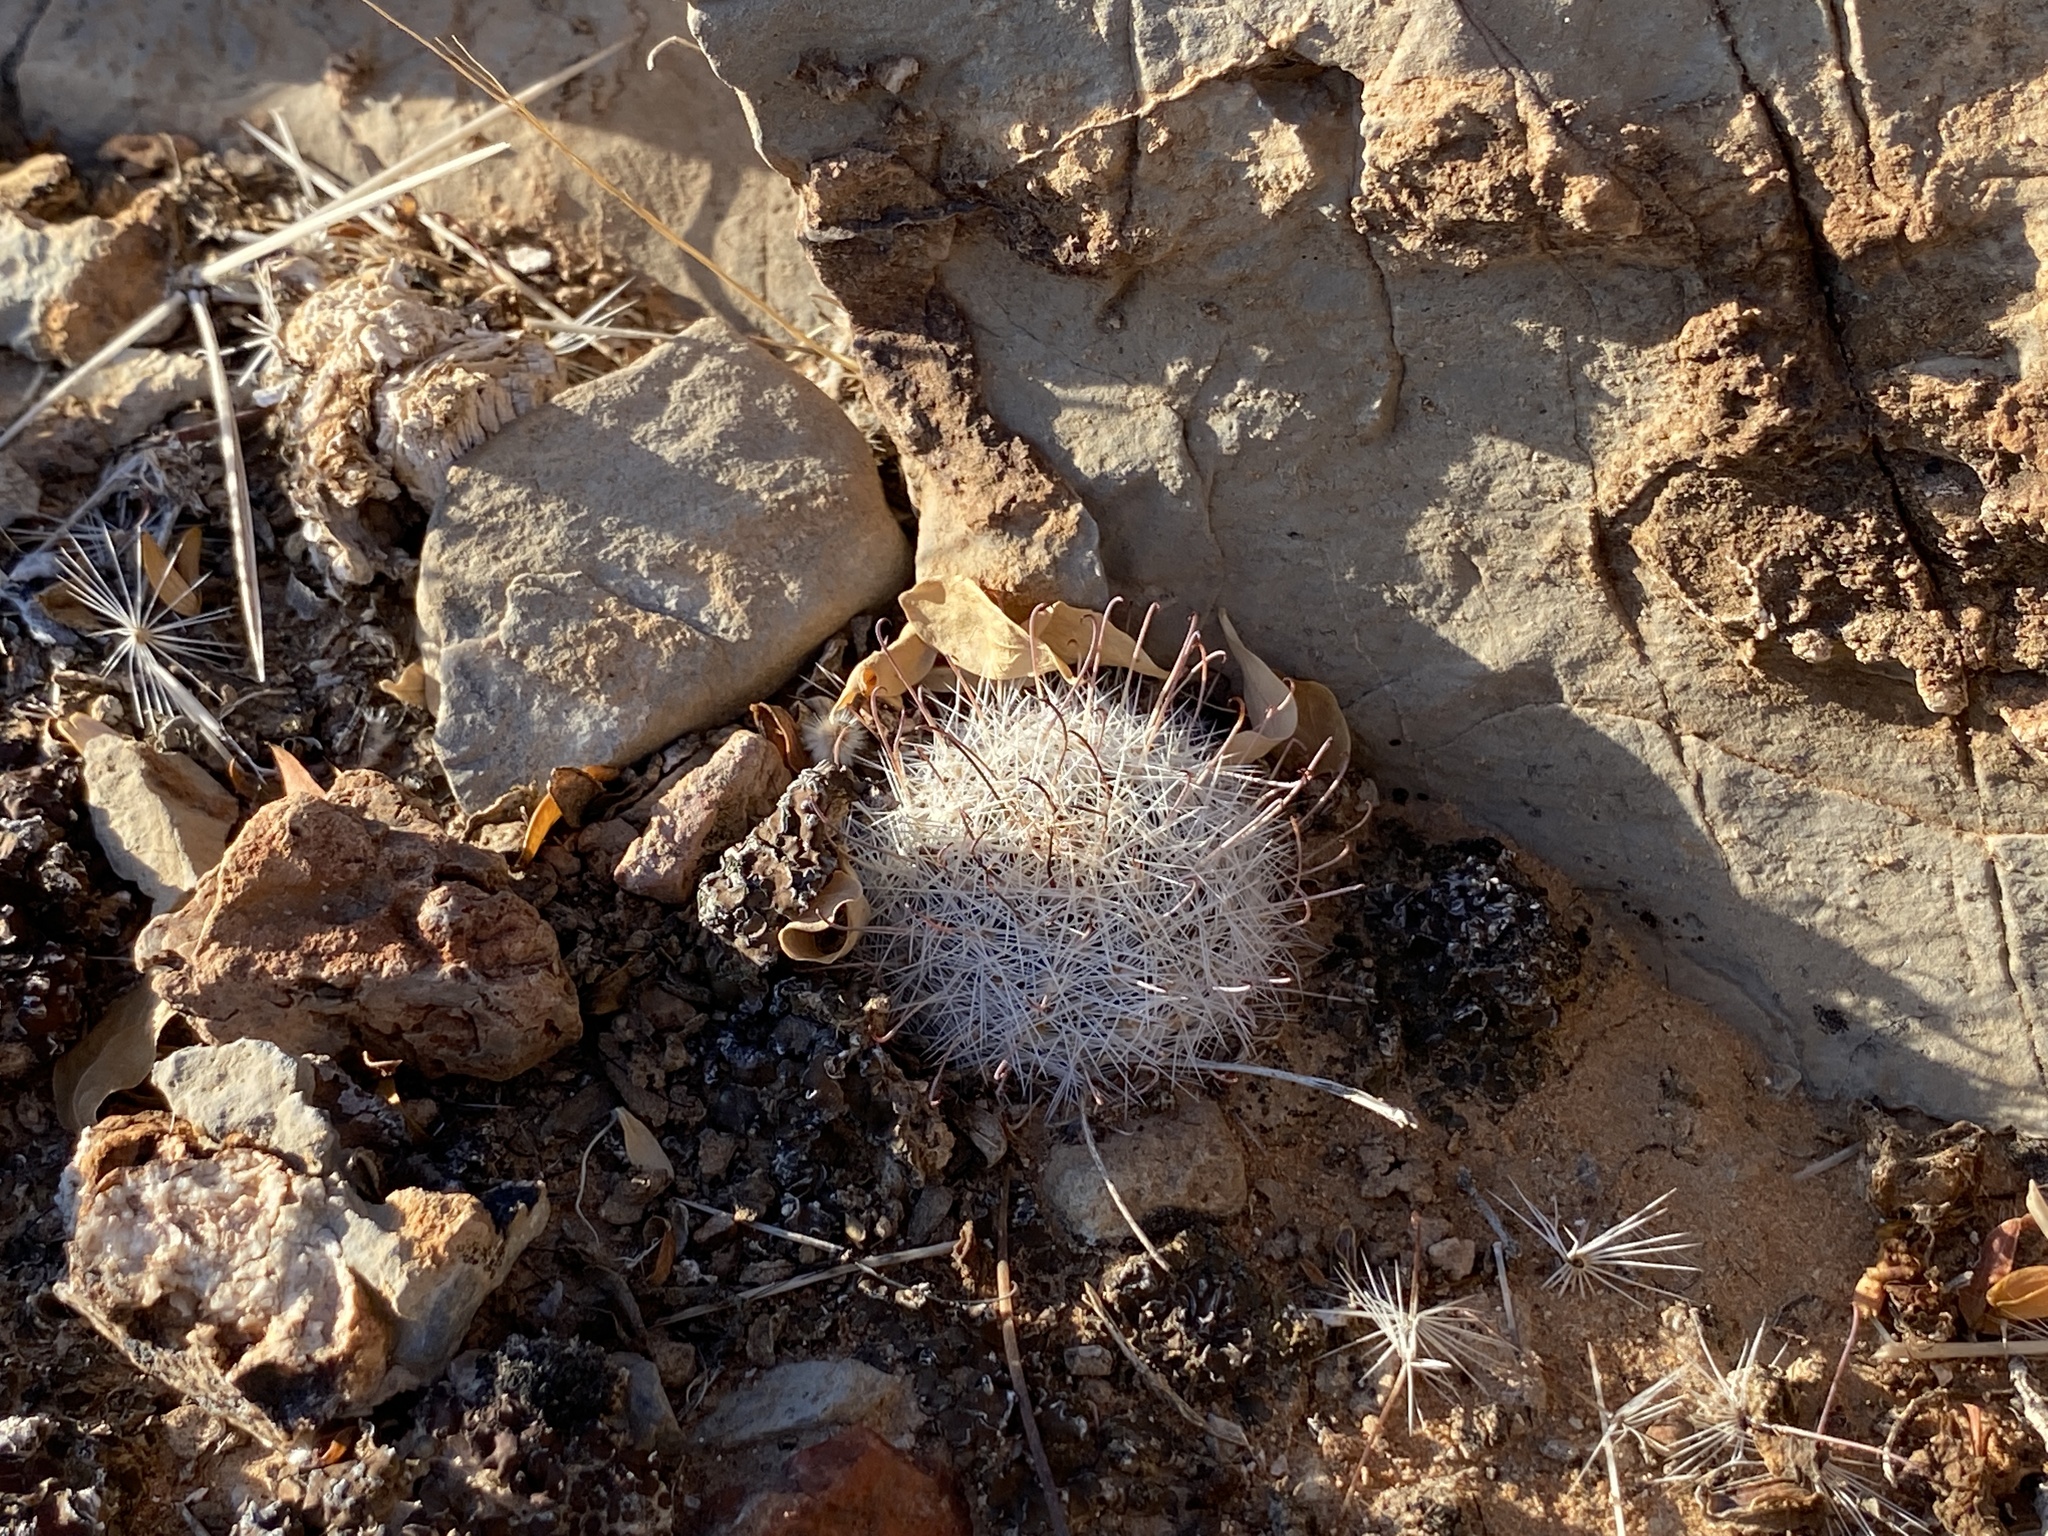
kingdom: Plantae
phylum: Tracheophyta
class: Magnoliopsida
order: Caryophyllales
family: Cactaceae
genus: Cochemiea
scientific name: Cochemiea grahamii
